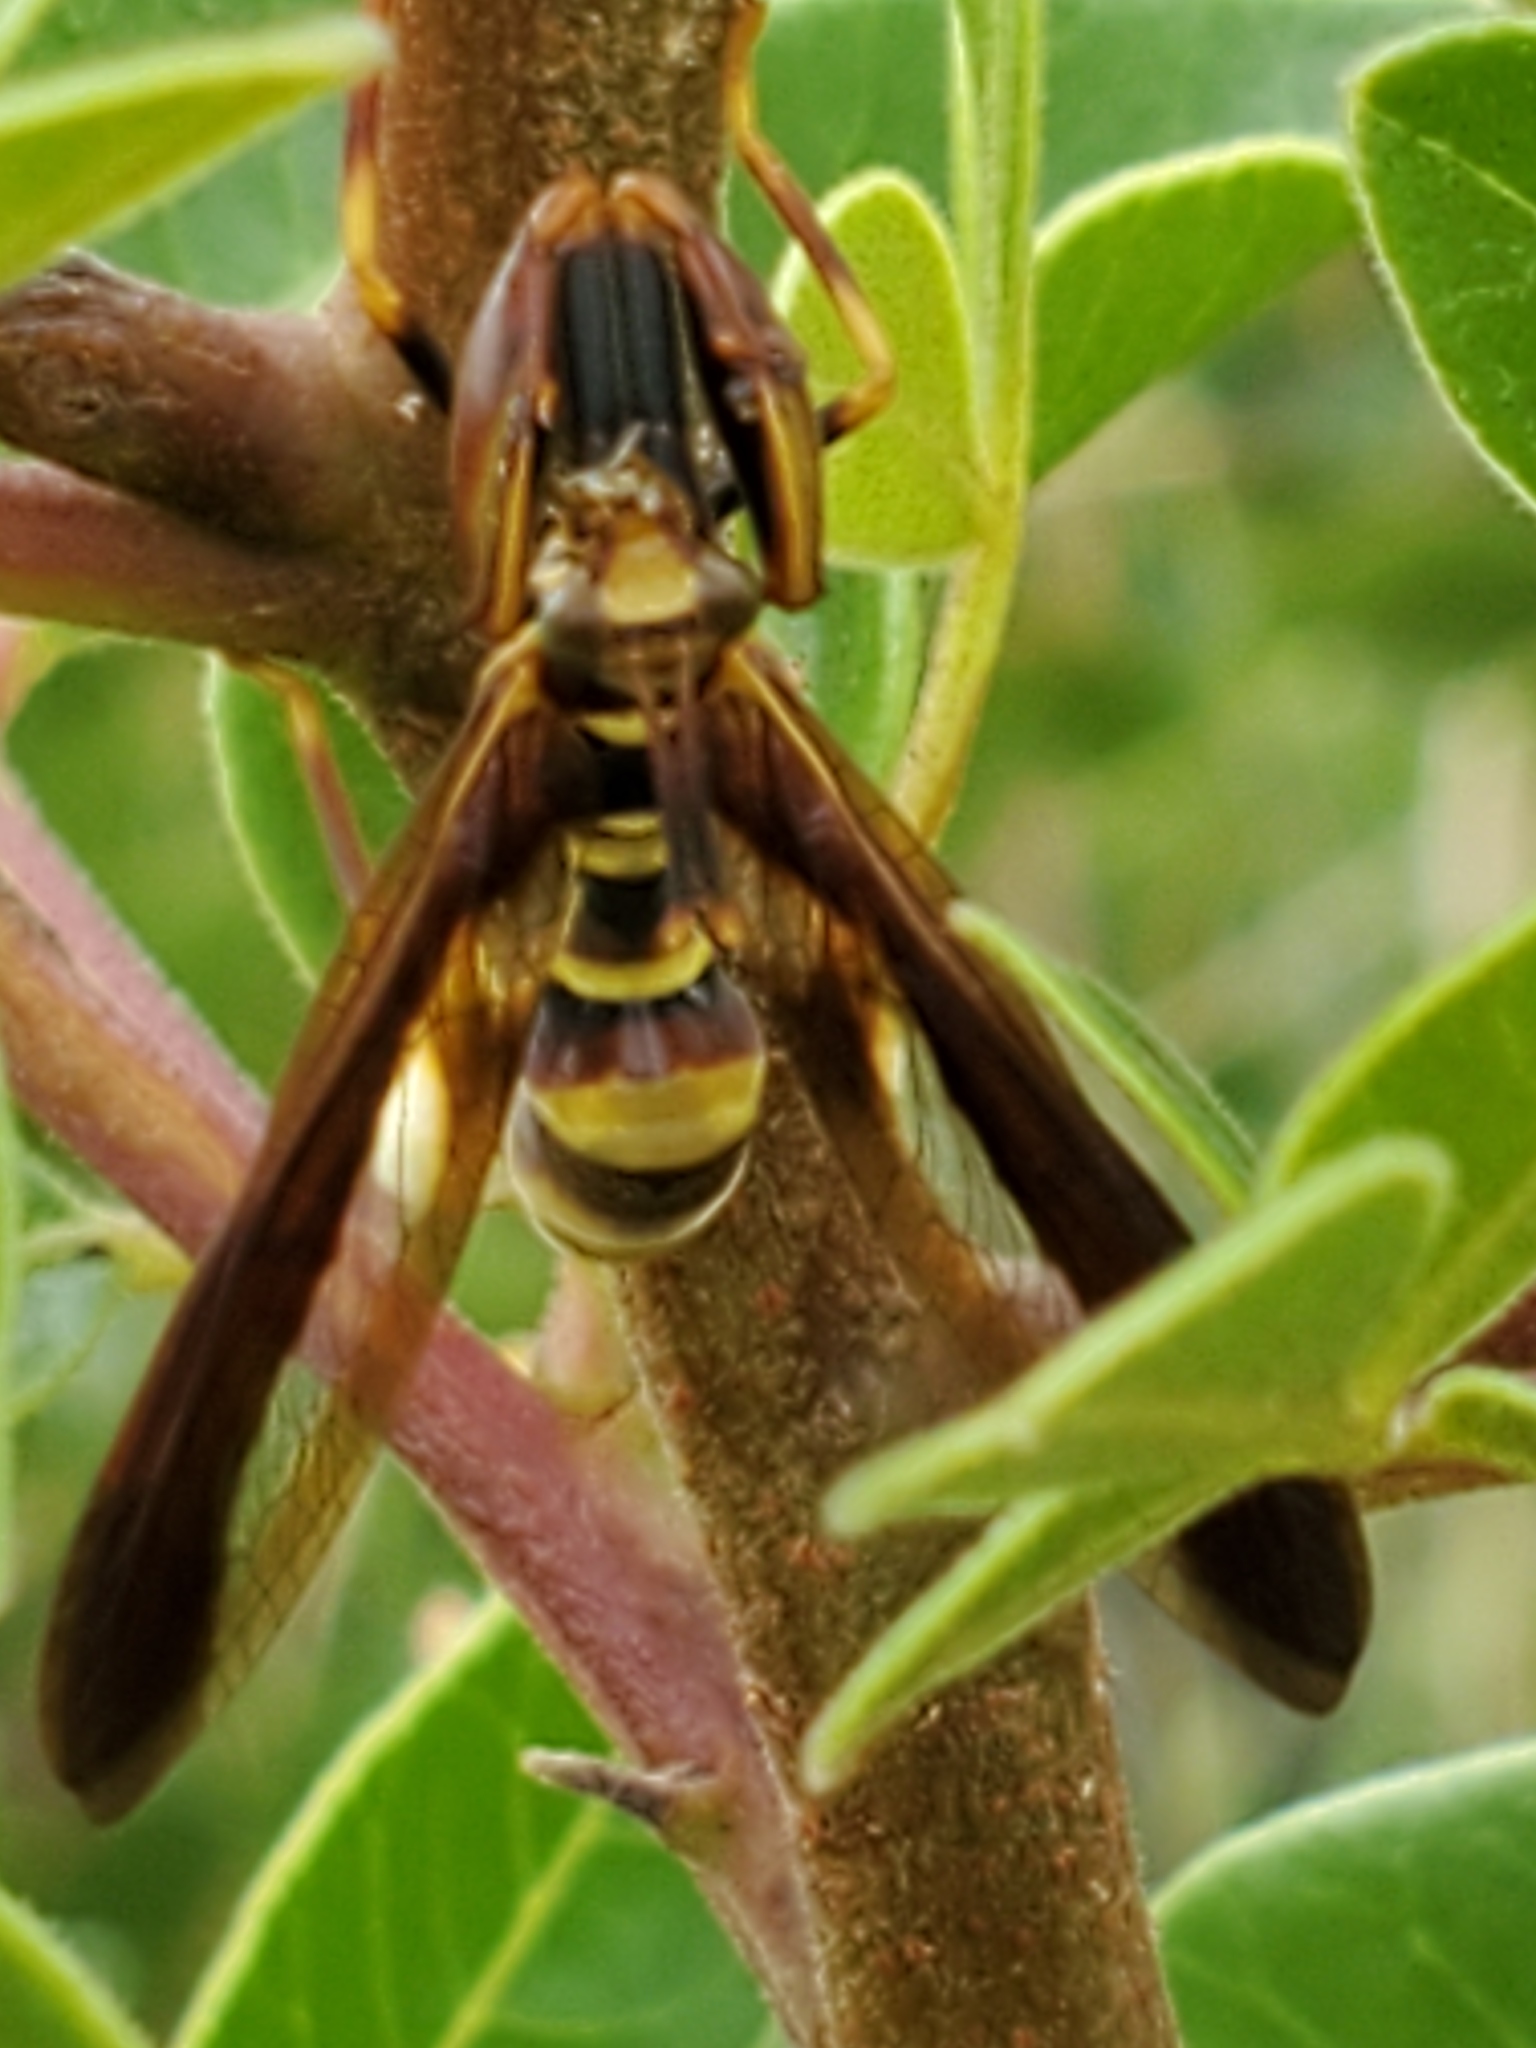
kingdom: Animalia
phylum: Arthropoda
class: Insecta
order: Neuroptera
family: Mantispidae
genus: Climaciella
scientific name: Climaciella brunnea
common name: Brown wasp mantidfly
